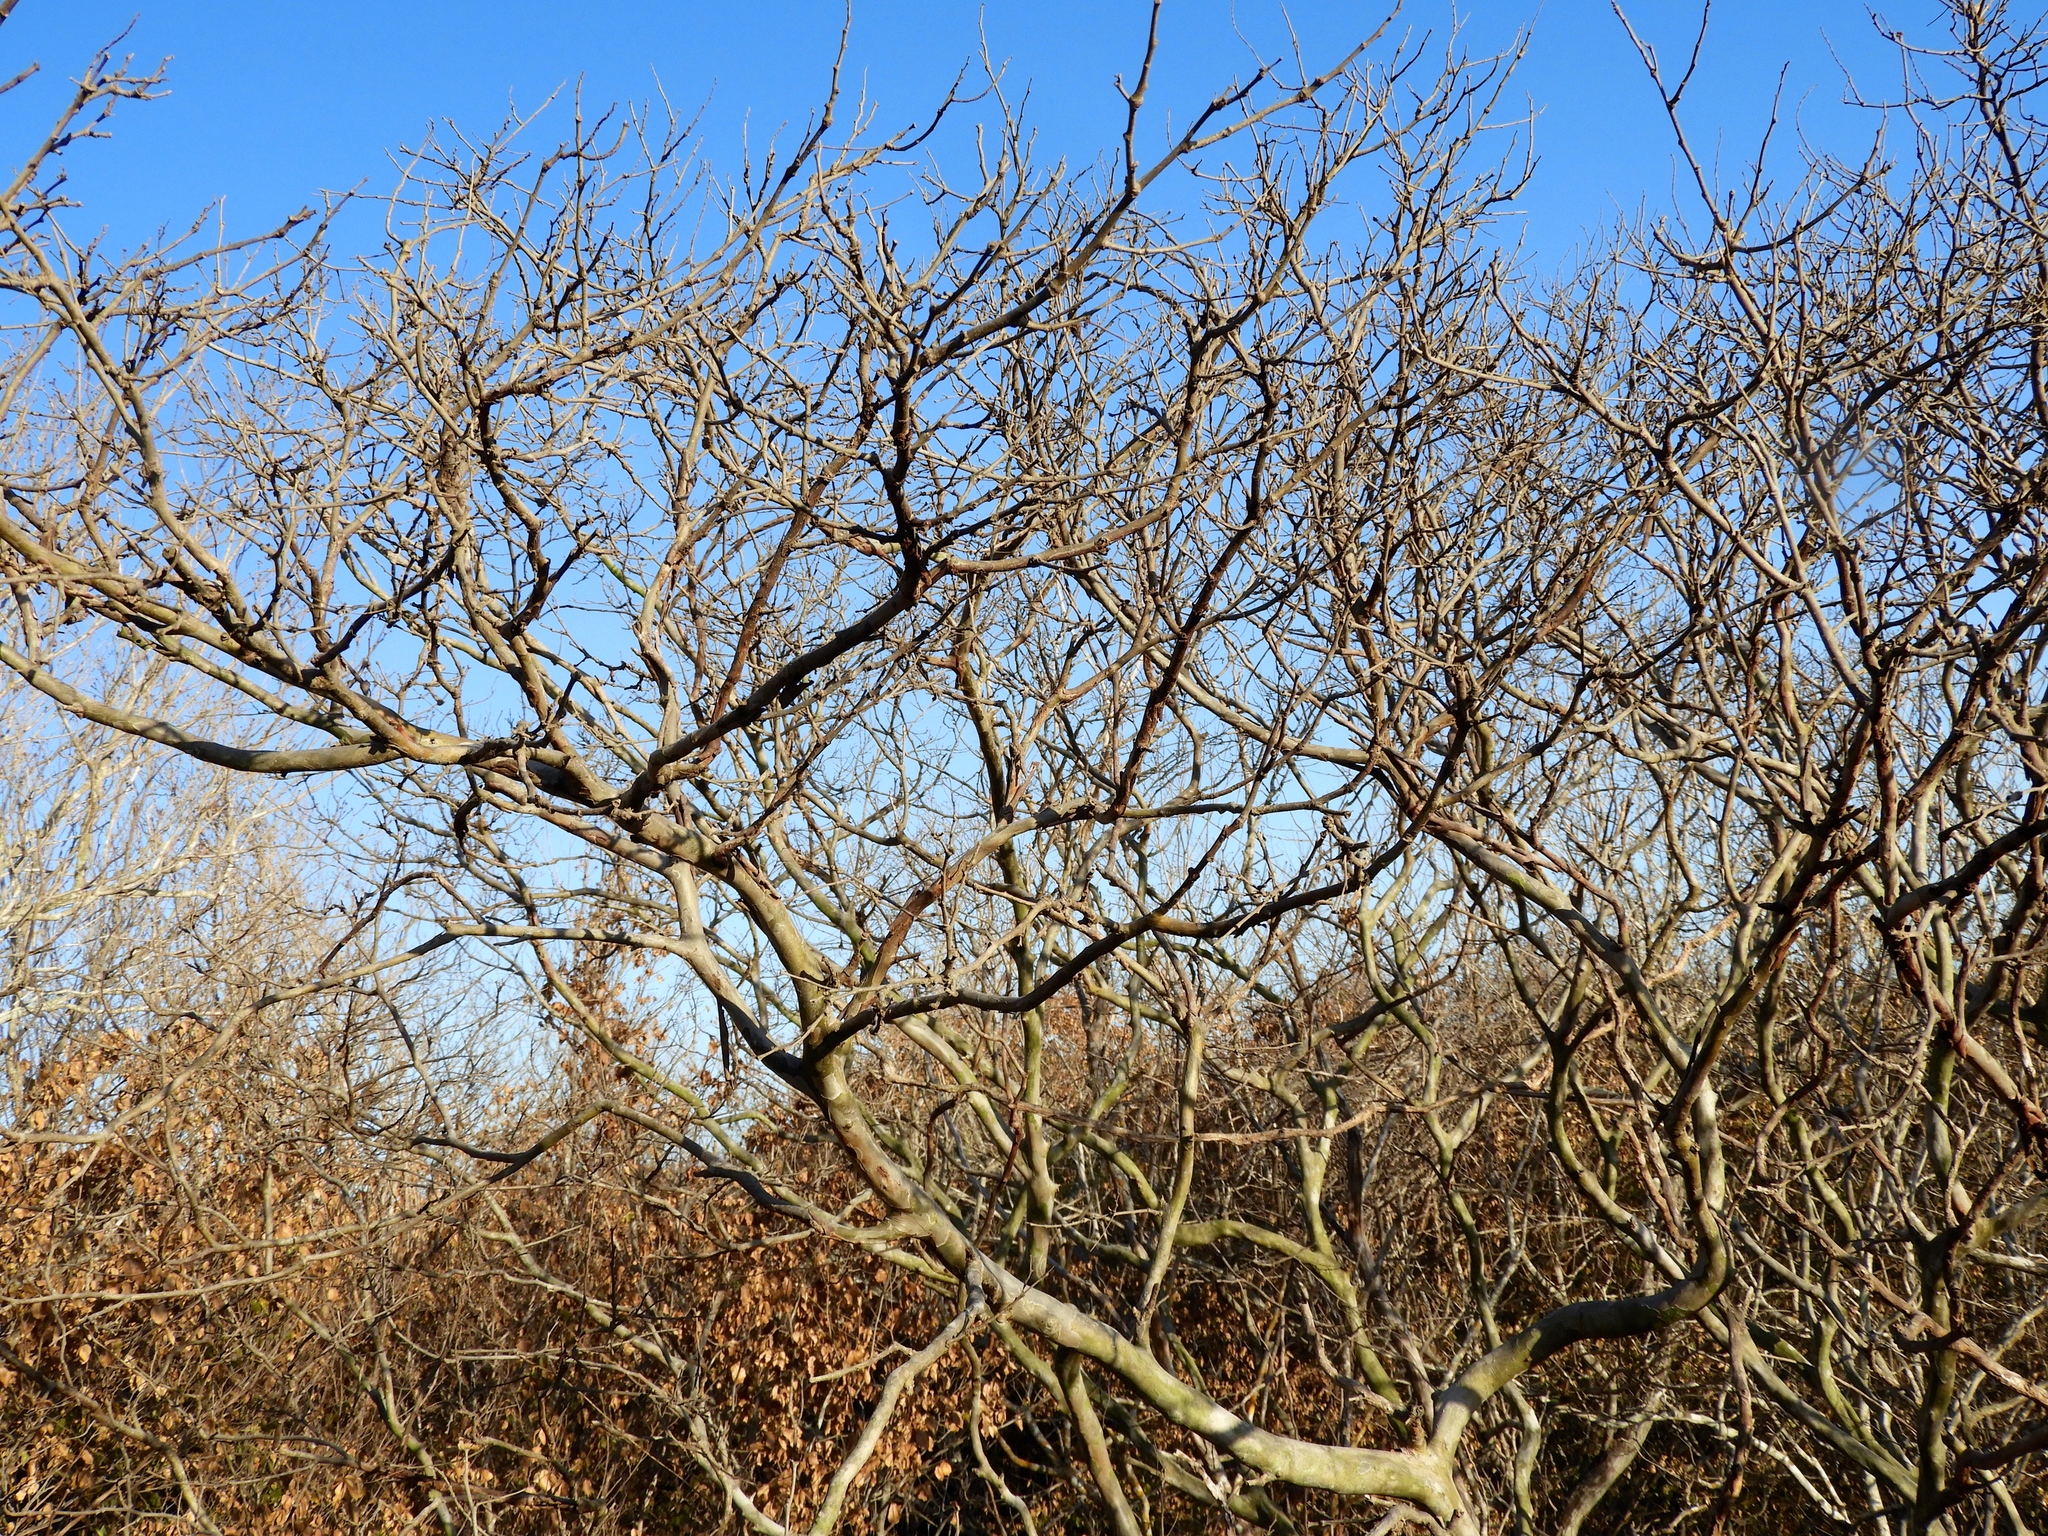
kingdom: Plantae
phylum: Tracheophyta
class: Magnoliopsida
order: Fabales
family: Fabaceae
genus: Libidibia
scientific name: Libidibia sclerocarpa
